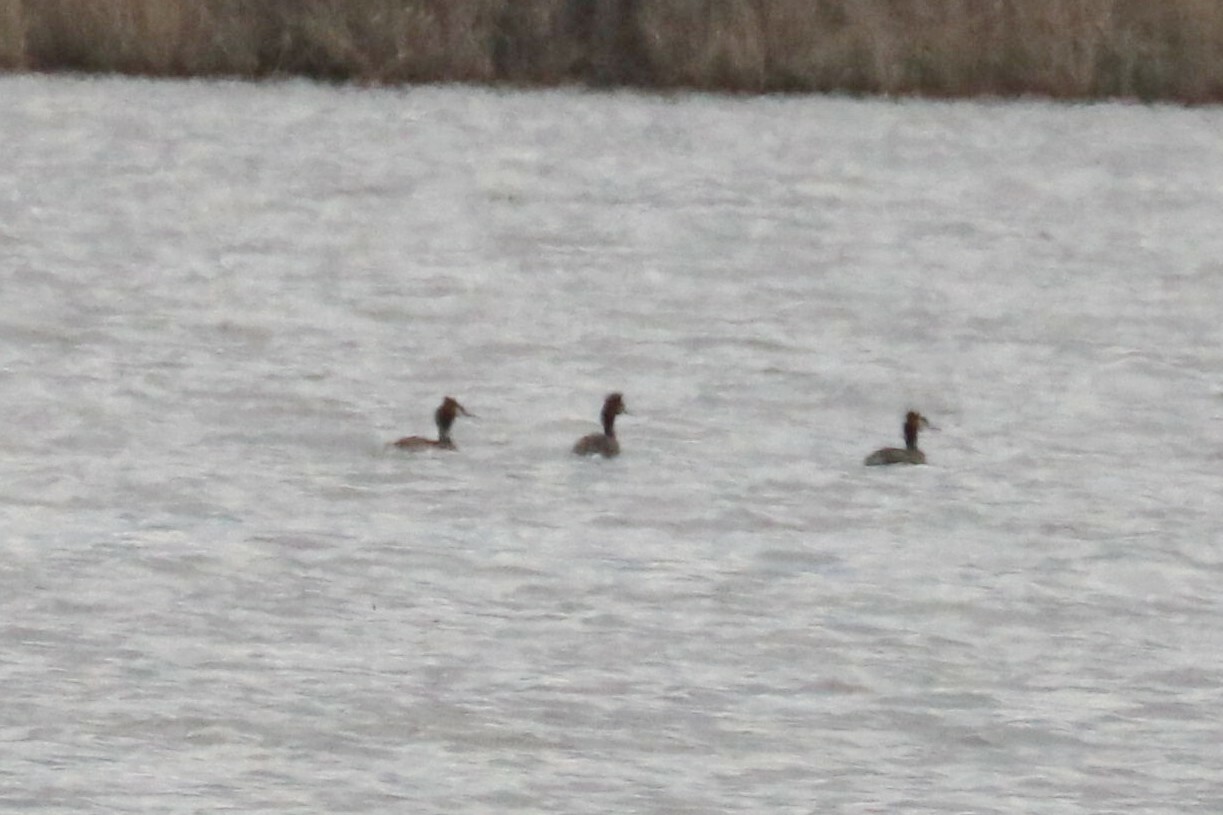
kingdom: Animalia
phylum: Chordata
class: Aves
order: Podicipediformes
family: Podicipedidae
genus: Podiceps
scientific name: Podiceps cristatus
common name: Great crested grebe
